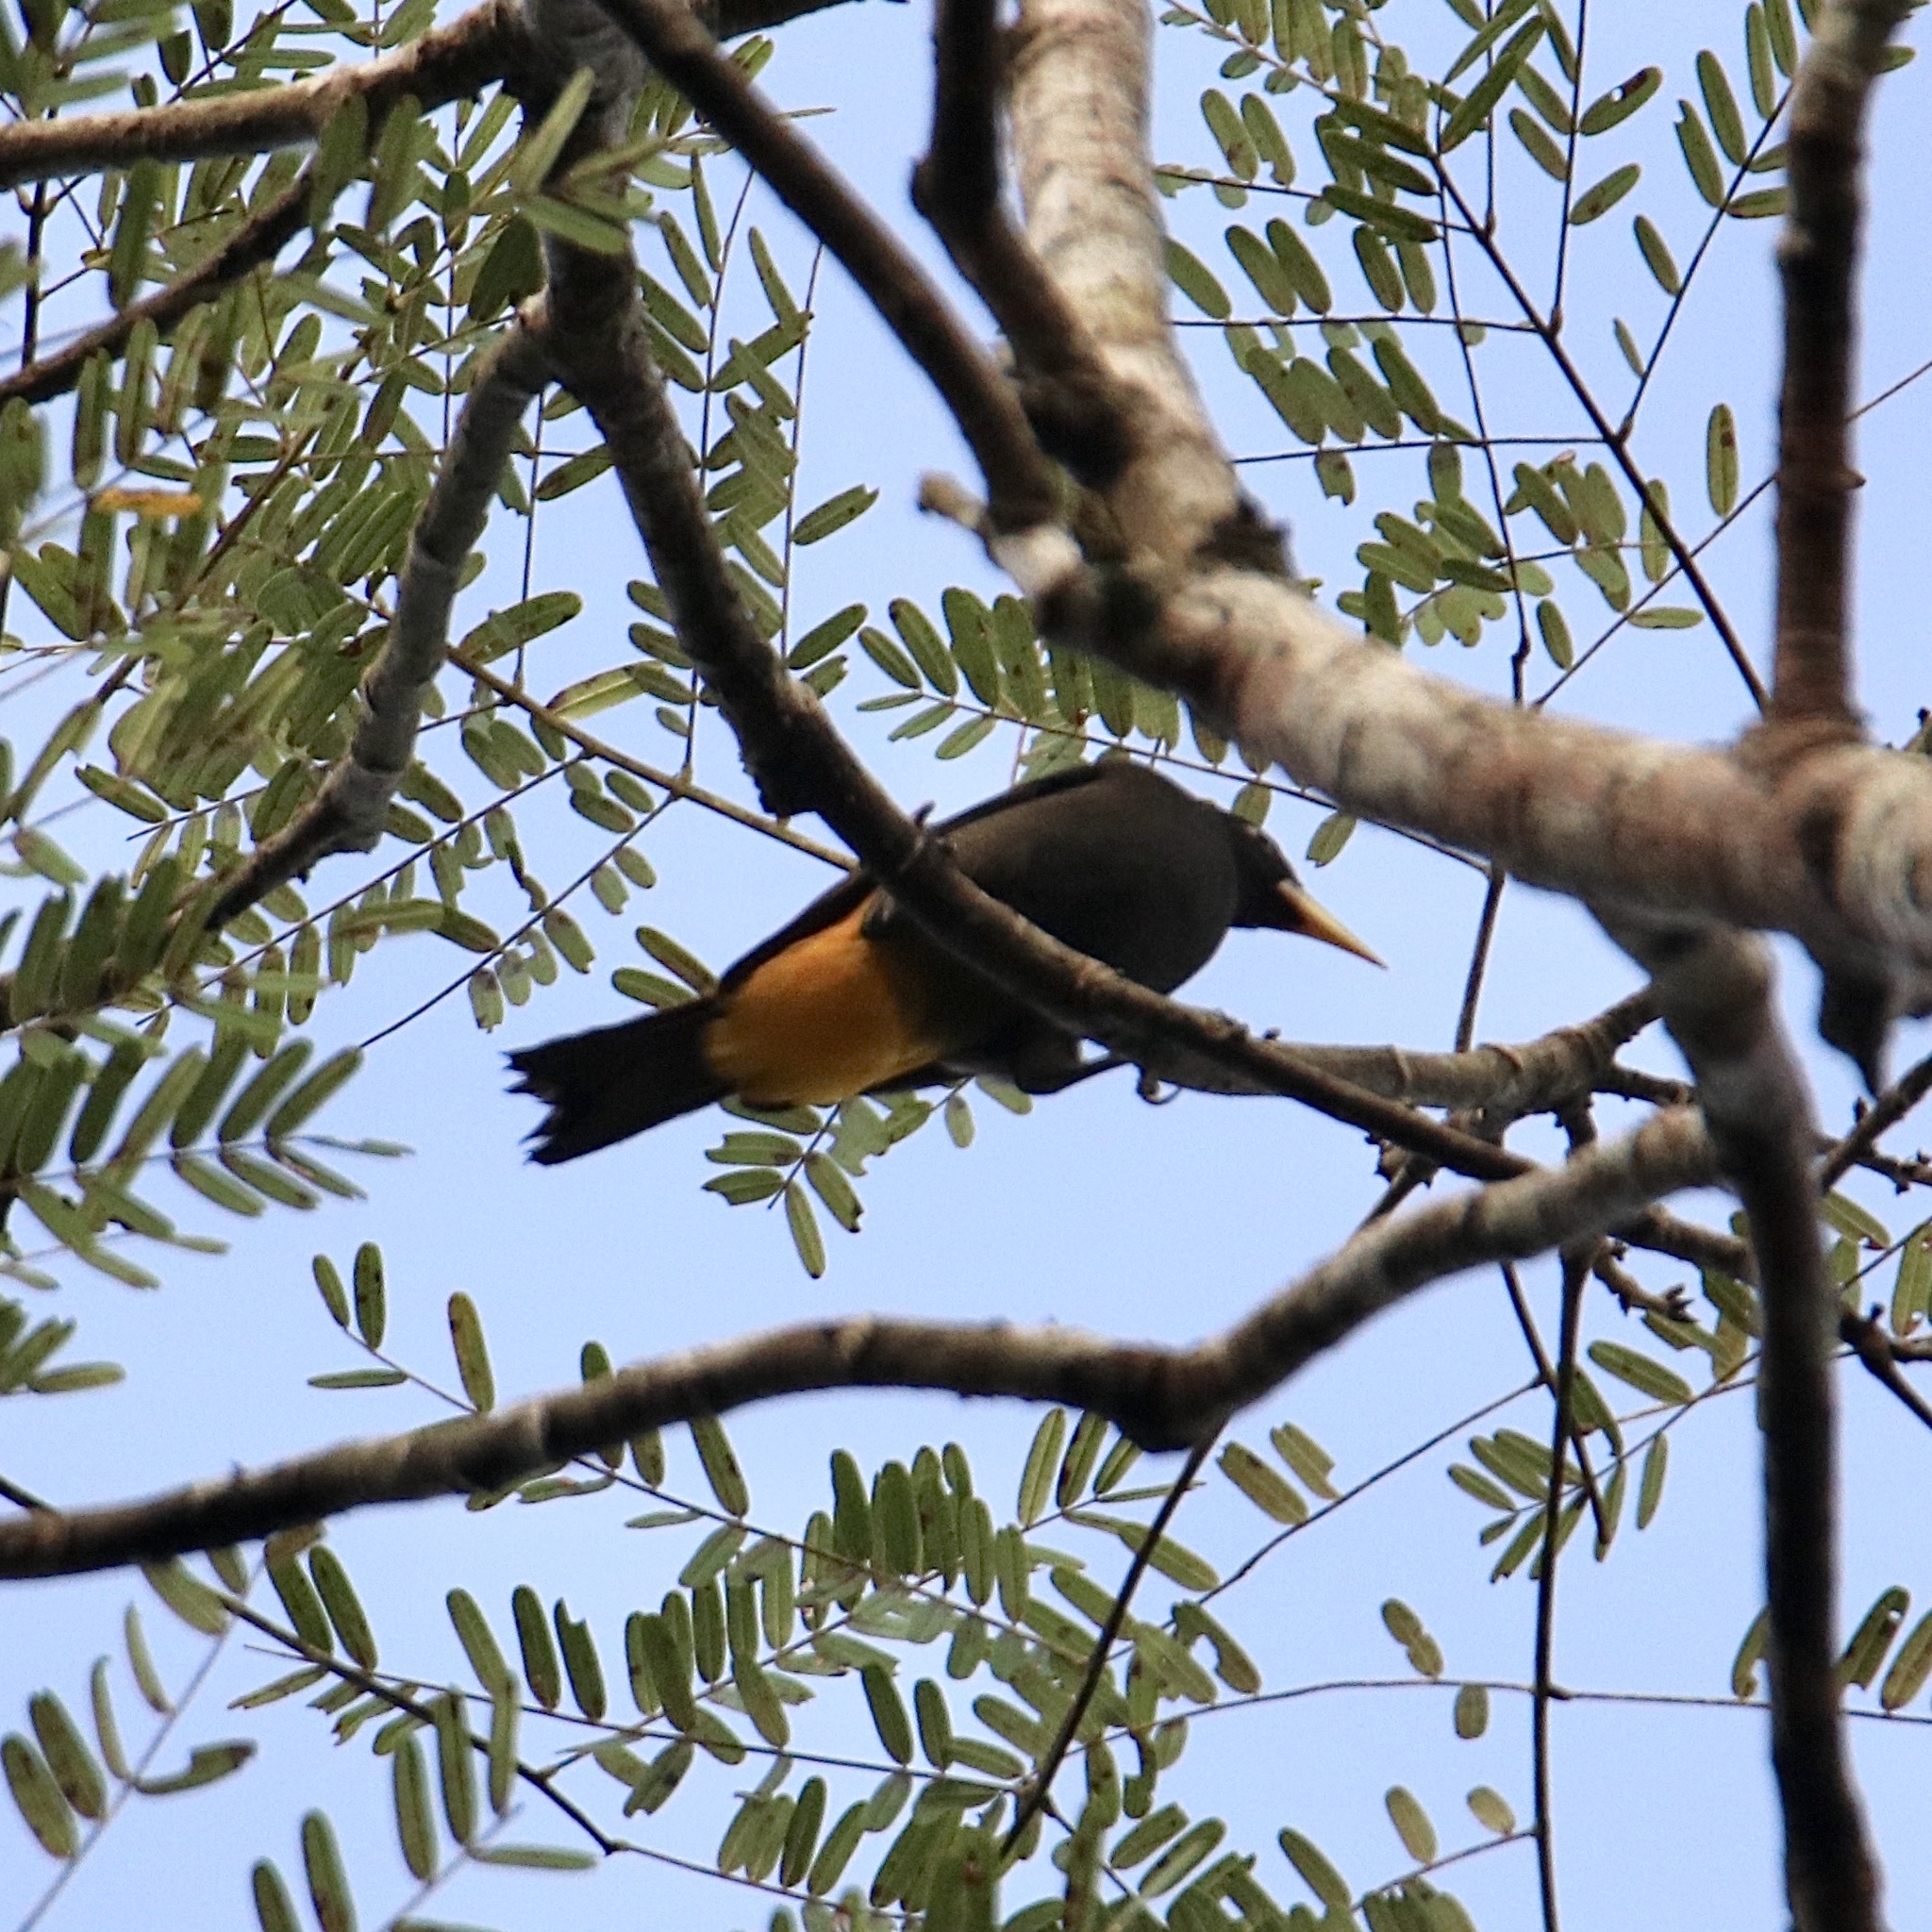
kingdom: Animalia
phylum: Chordata
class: Aves
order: Passeriformes
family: Icteridae
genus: Cacicus
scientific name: Cacicus cela
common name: Yellow-rumped cacique
